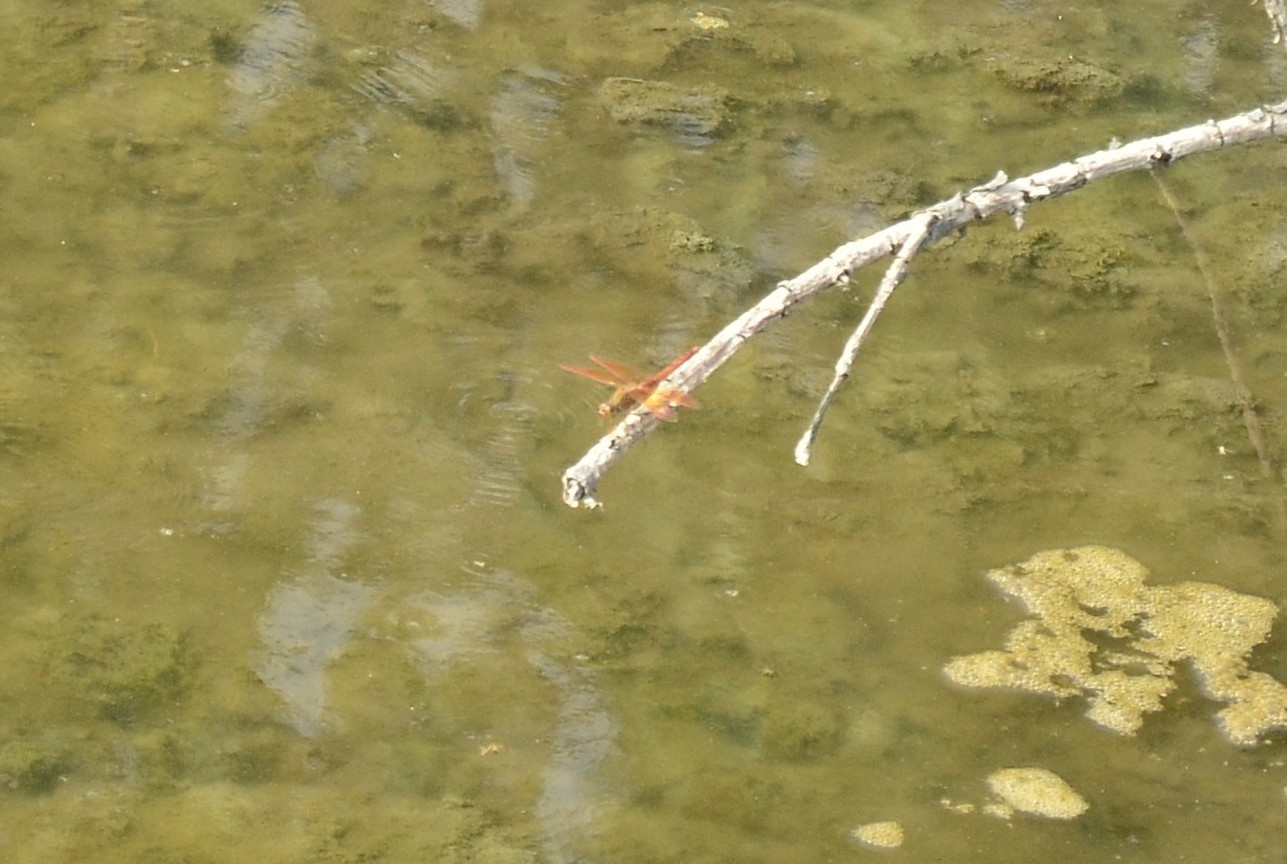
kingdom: Animalia
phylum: Arthropoda
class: Insecta
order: Odonata
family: Libellulidae
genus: Brachythemis
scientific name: Brachythemis contaminata
